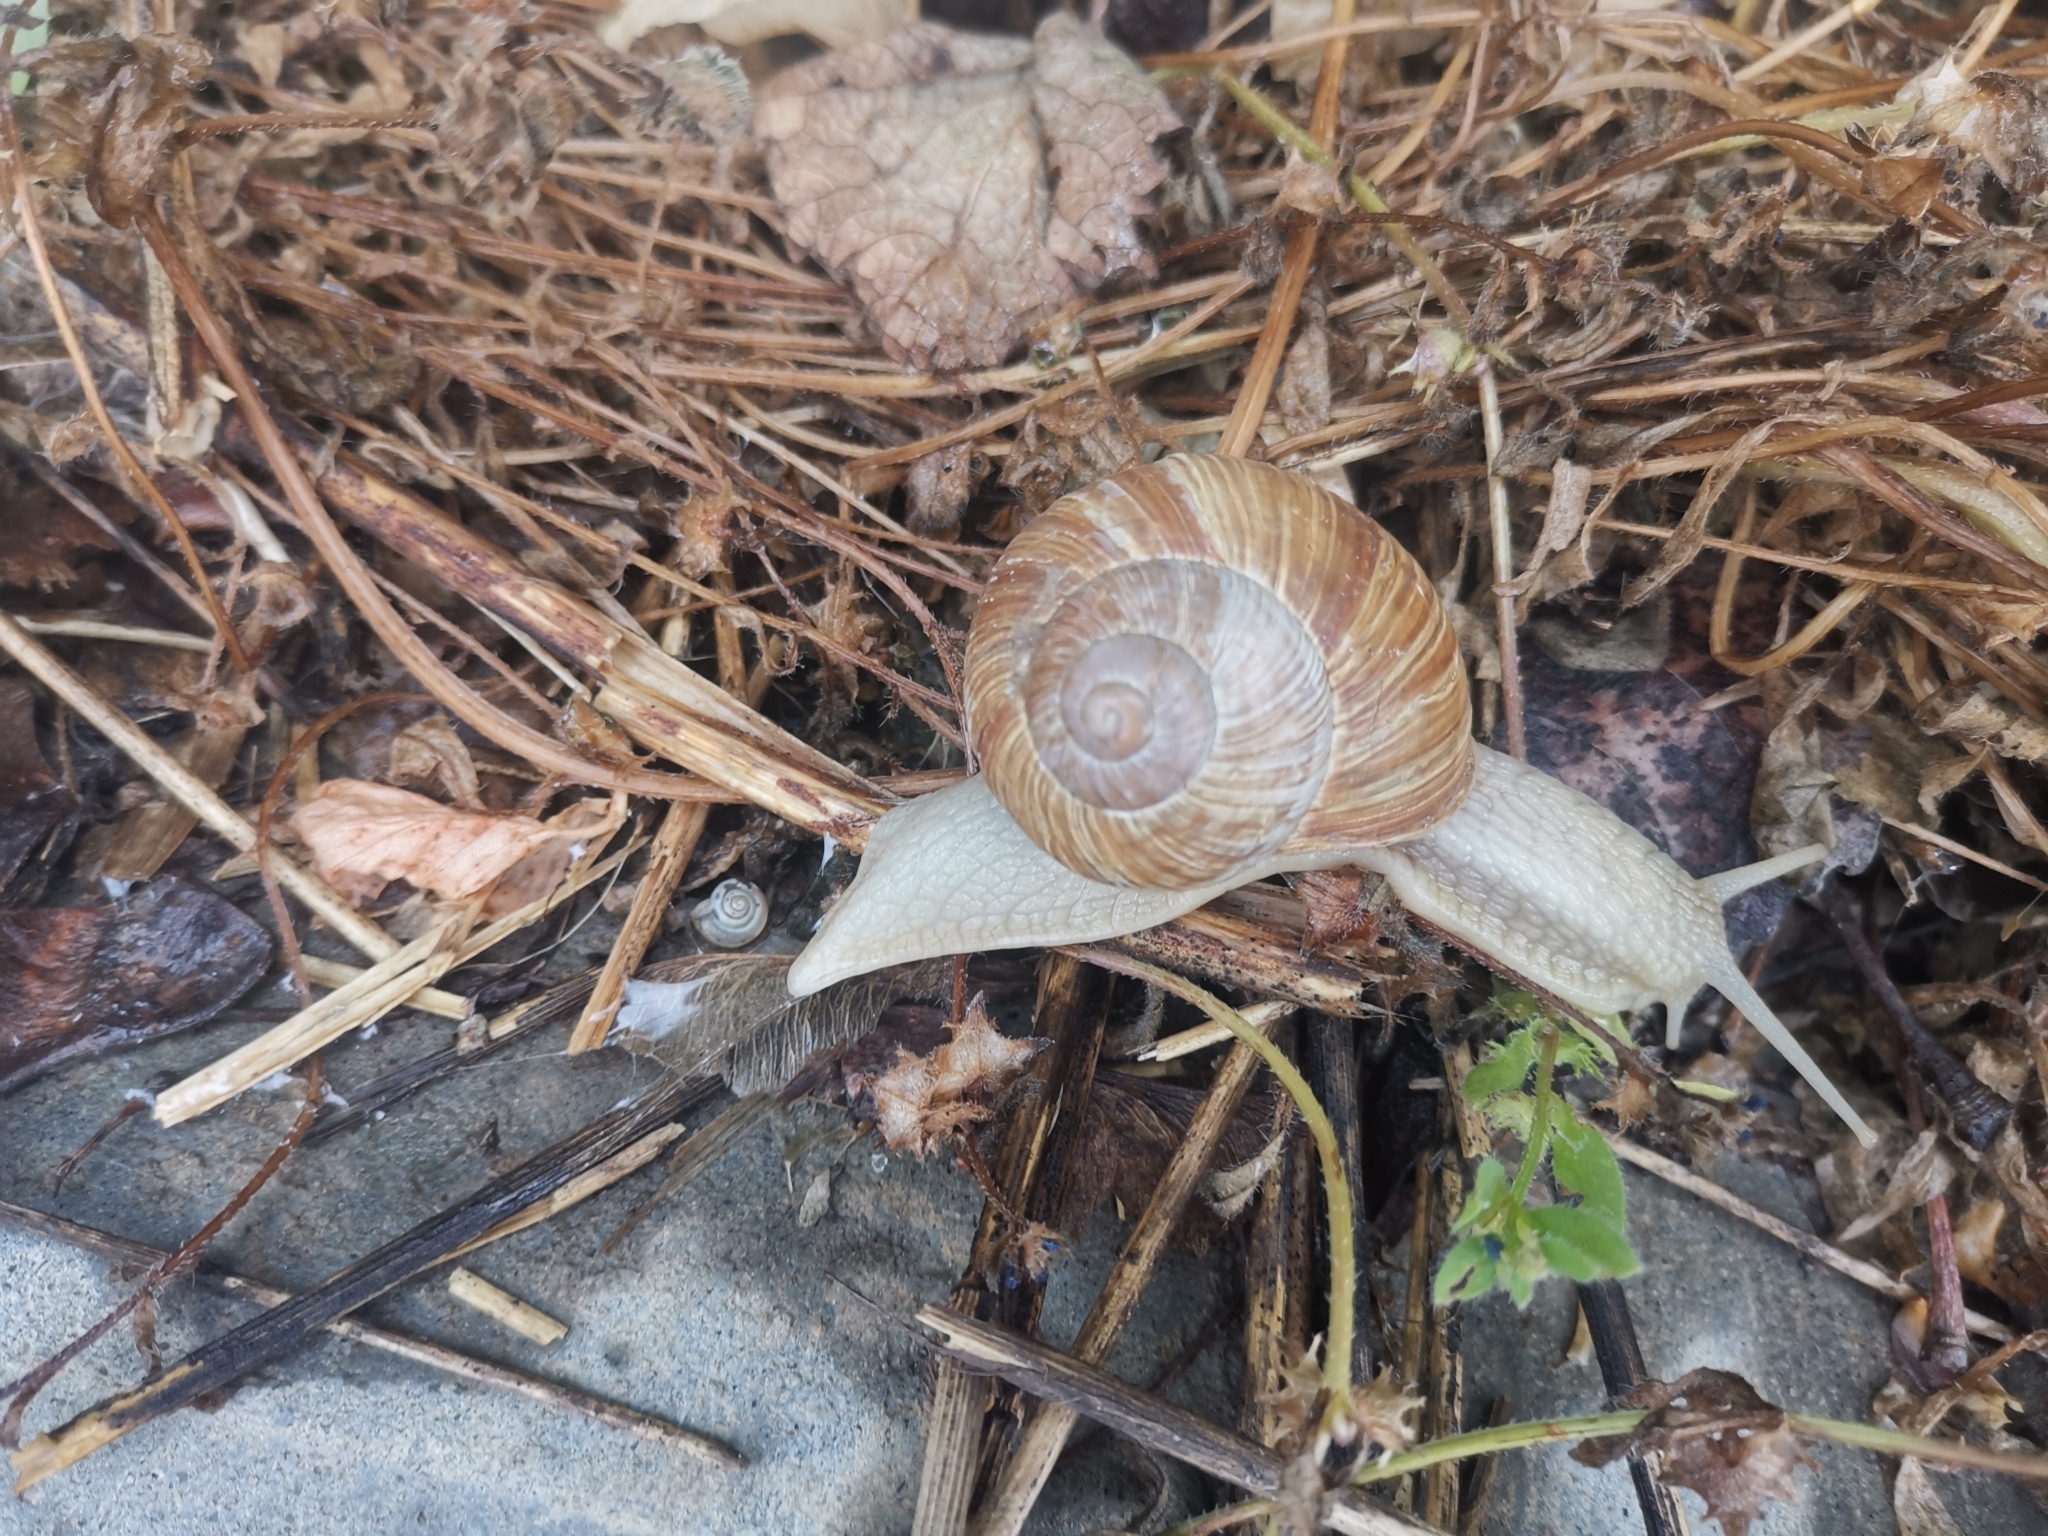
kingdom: Animalia
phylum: Mollusca
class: Gastropoda
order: Stylommatophora
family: Helicidae
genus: Helix
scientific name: Helix pomatia
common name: Roman snail
